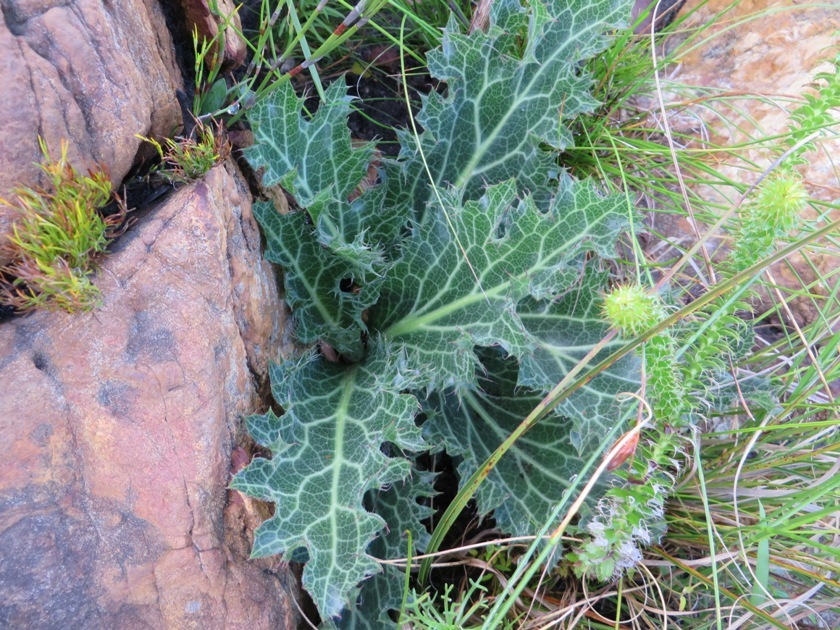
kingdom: Plantae
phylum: Tracheophyta
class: Magnoliopsida
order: Apiales
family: Apiaceae
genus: Lichtensteinia
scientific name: Lichtensteinia lacera
